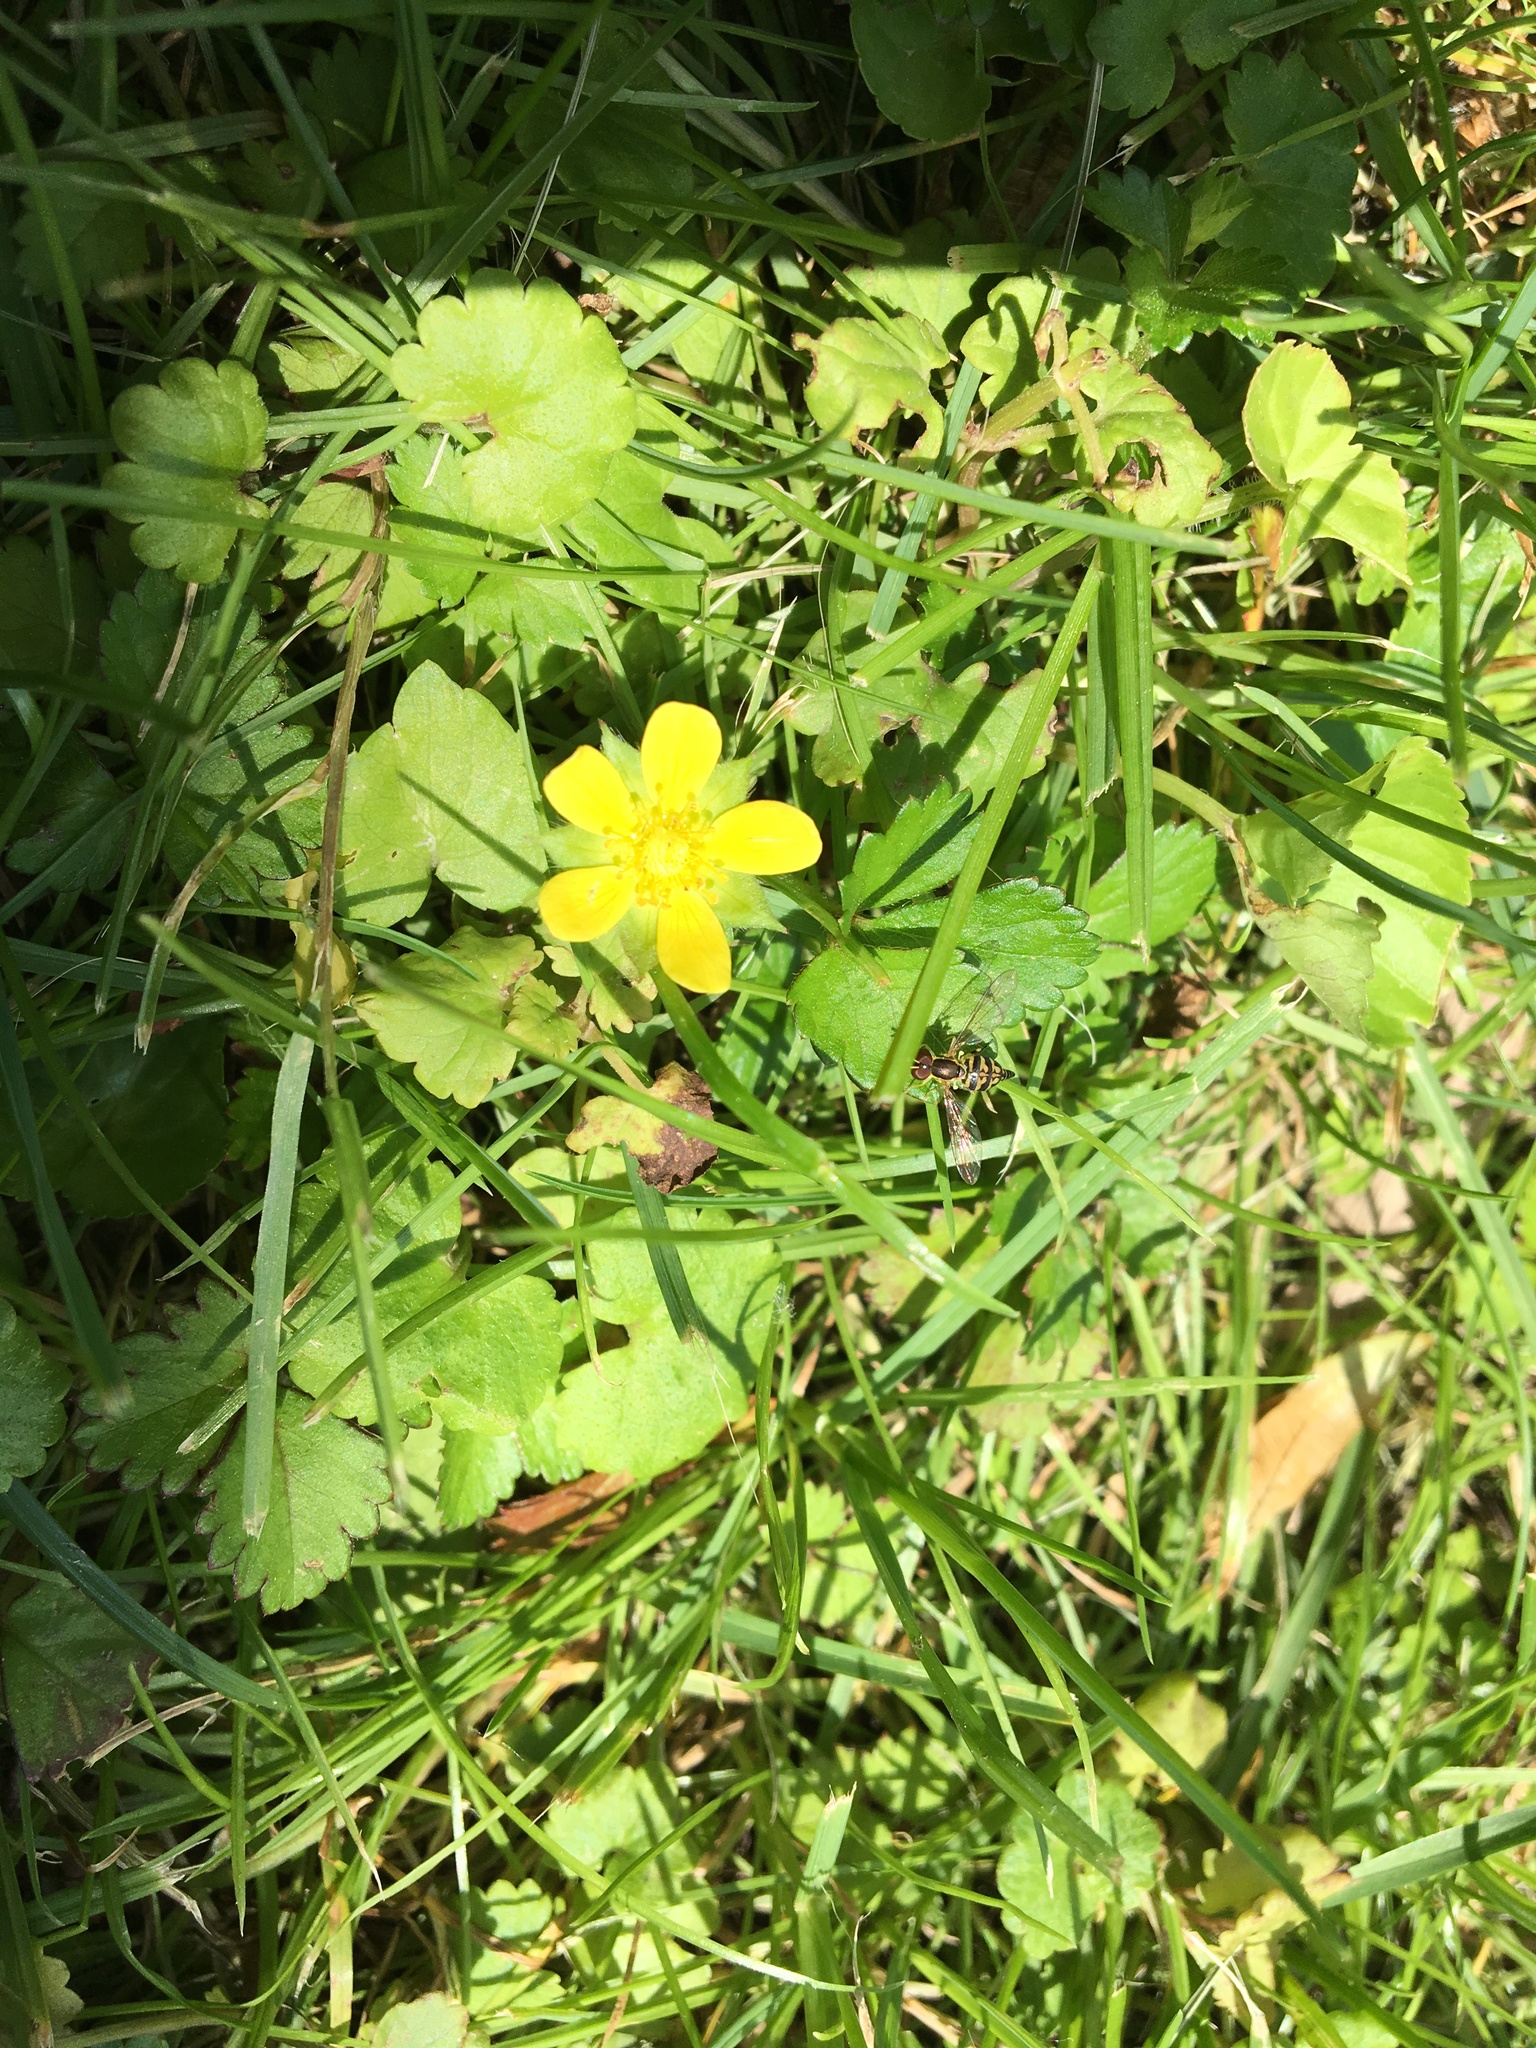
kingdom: Plantae
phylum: Tracheophyta
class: Magnoliopsida
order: Rosales
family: Rosaceae
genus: Potentilla
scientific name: Potentilla indica
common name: Yellow-flowered strawberry
